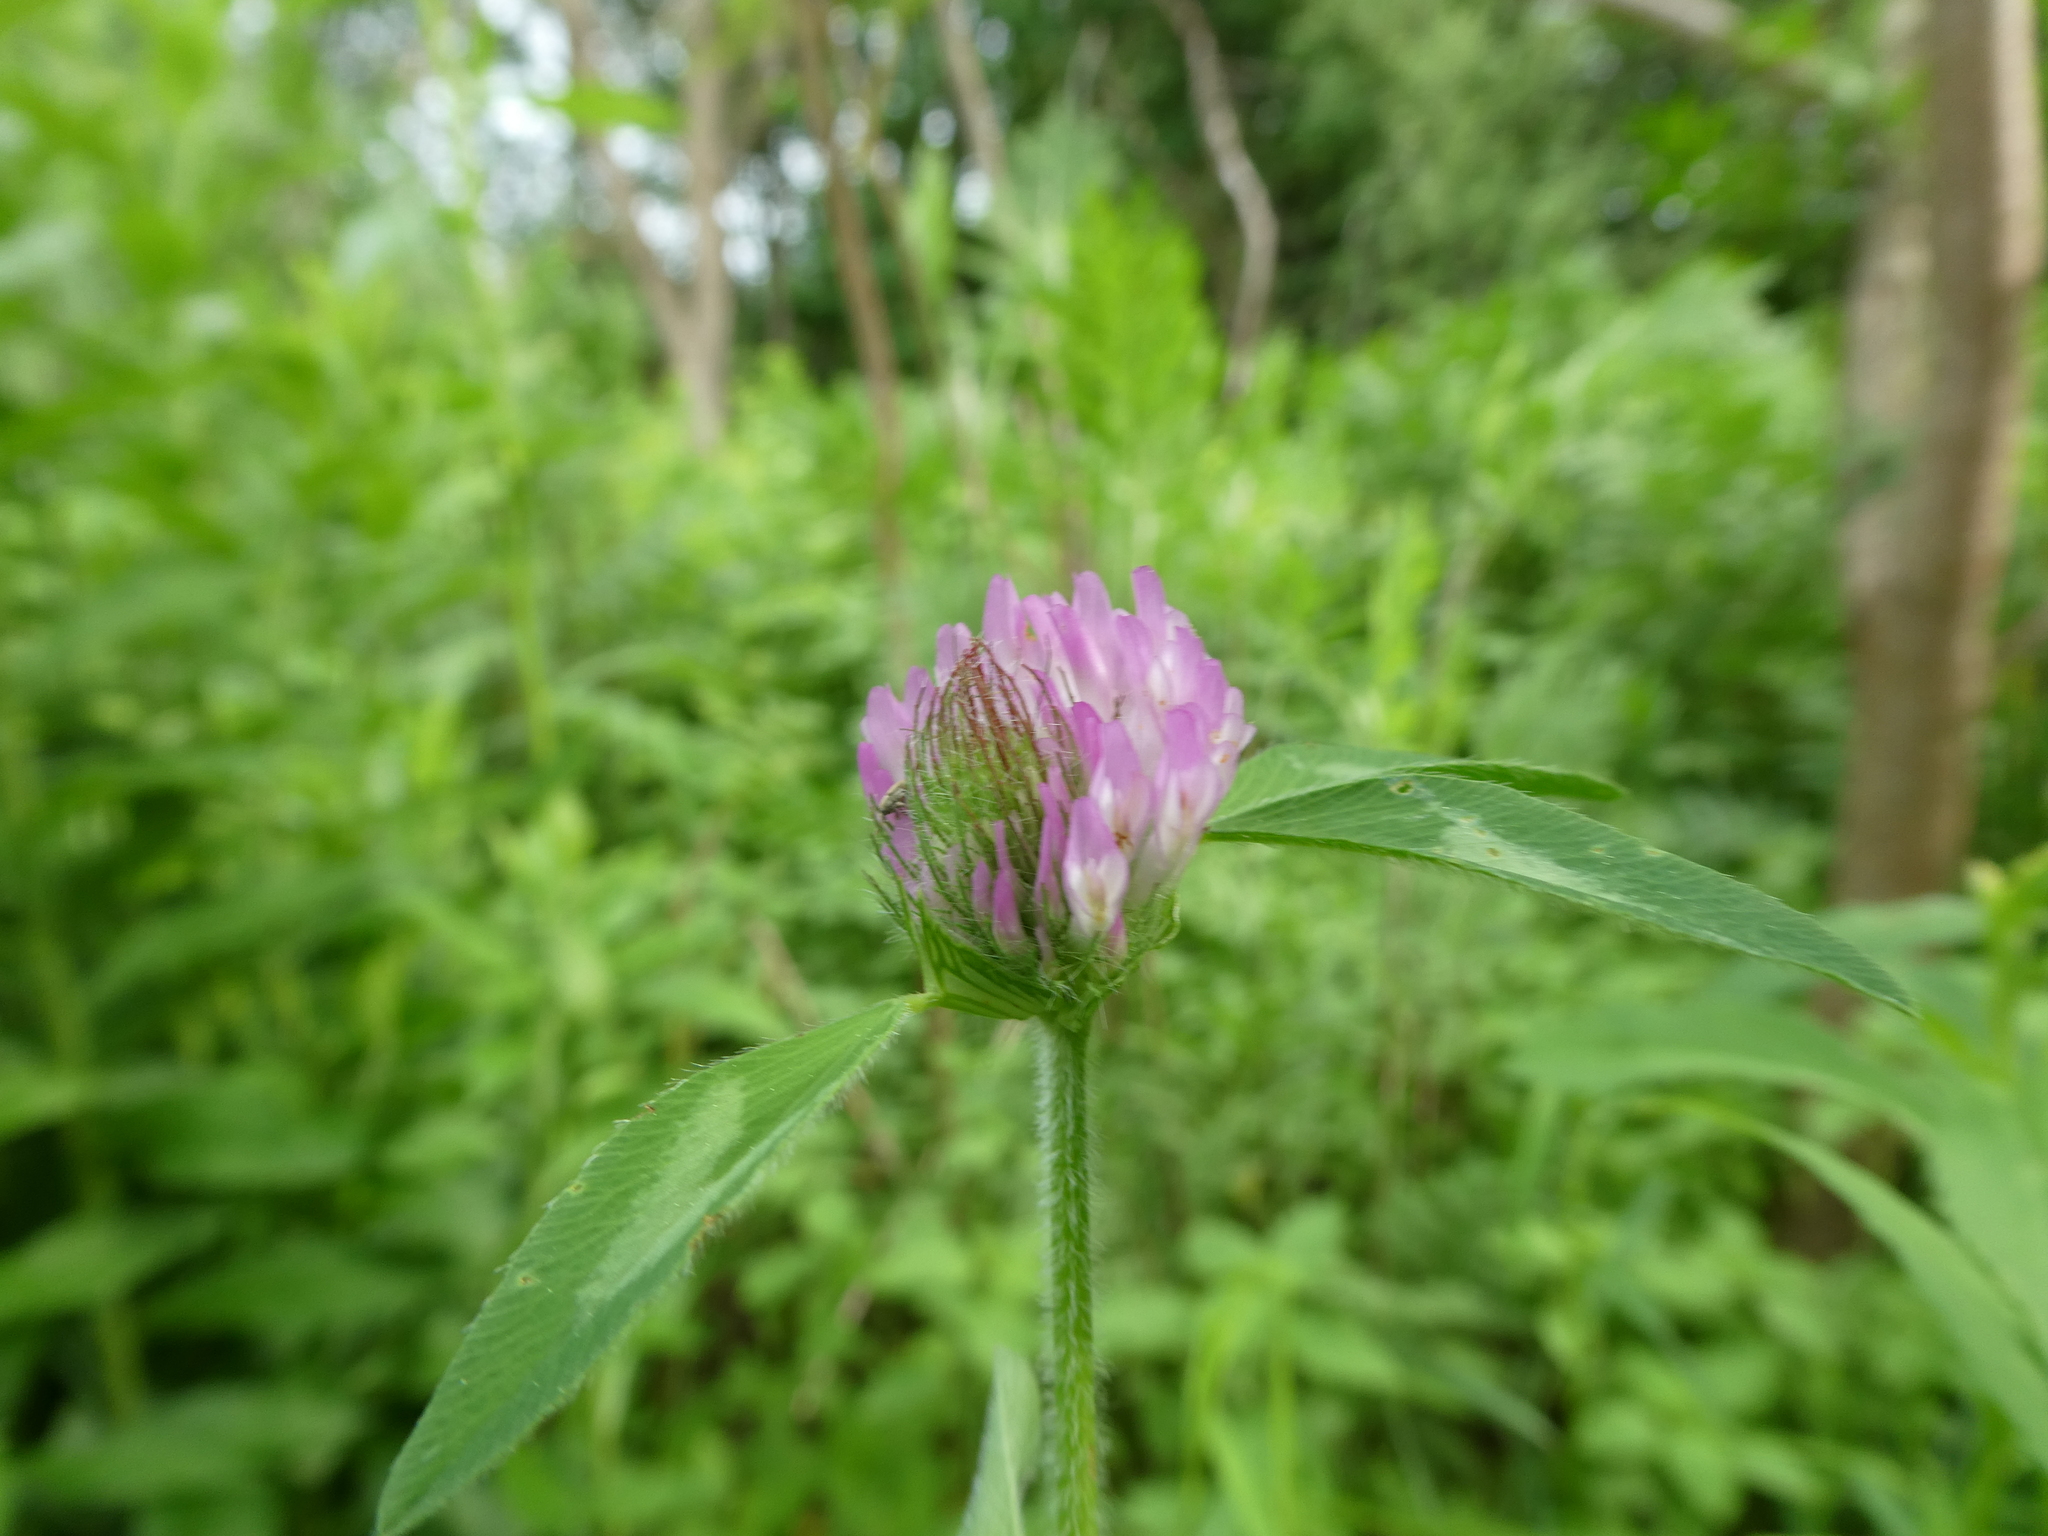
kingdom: Plantae
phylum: Tracheophyta
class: Magnoliopsida
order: Fabales
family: Fabaceae
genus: Trifolium
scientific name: Trifolium pratense
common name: Red clover
